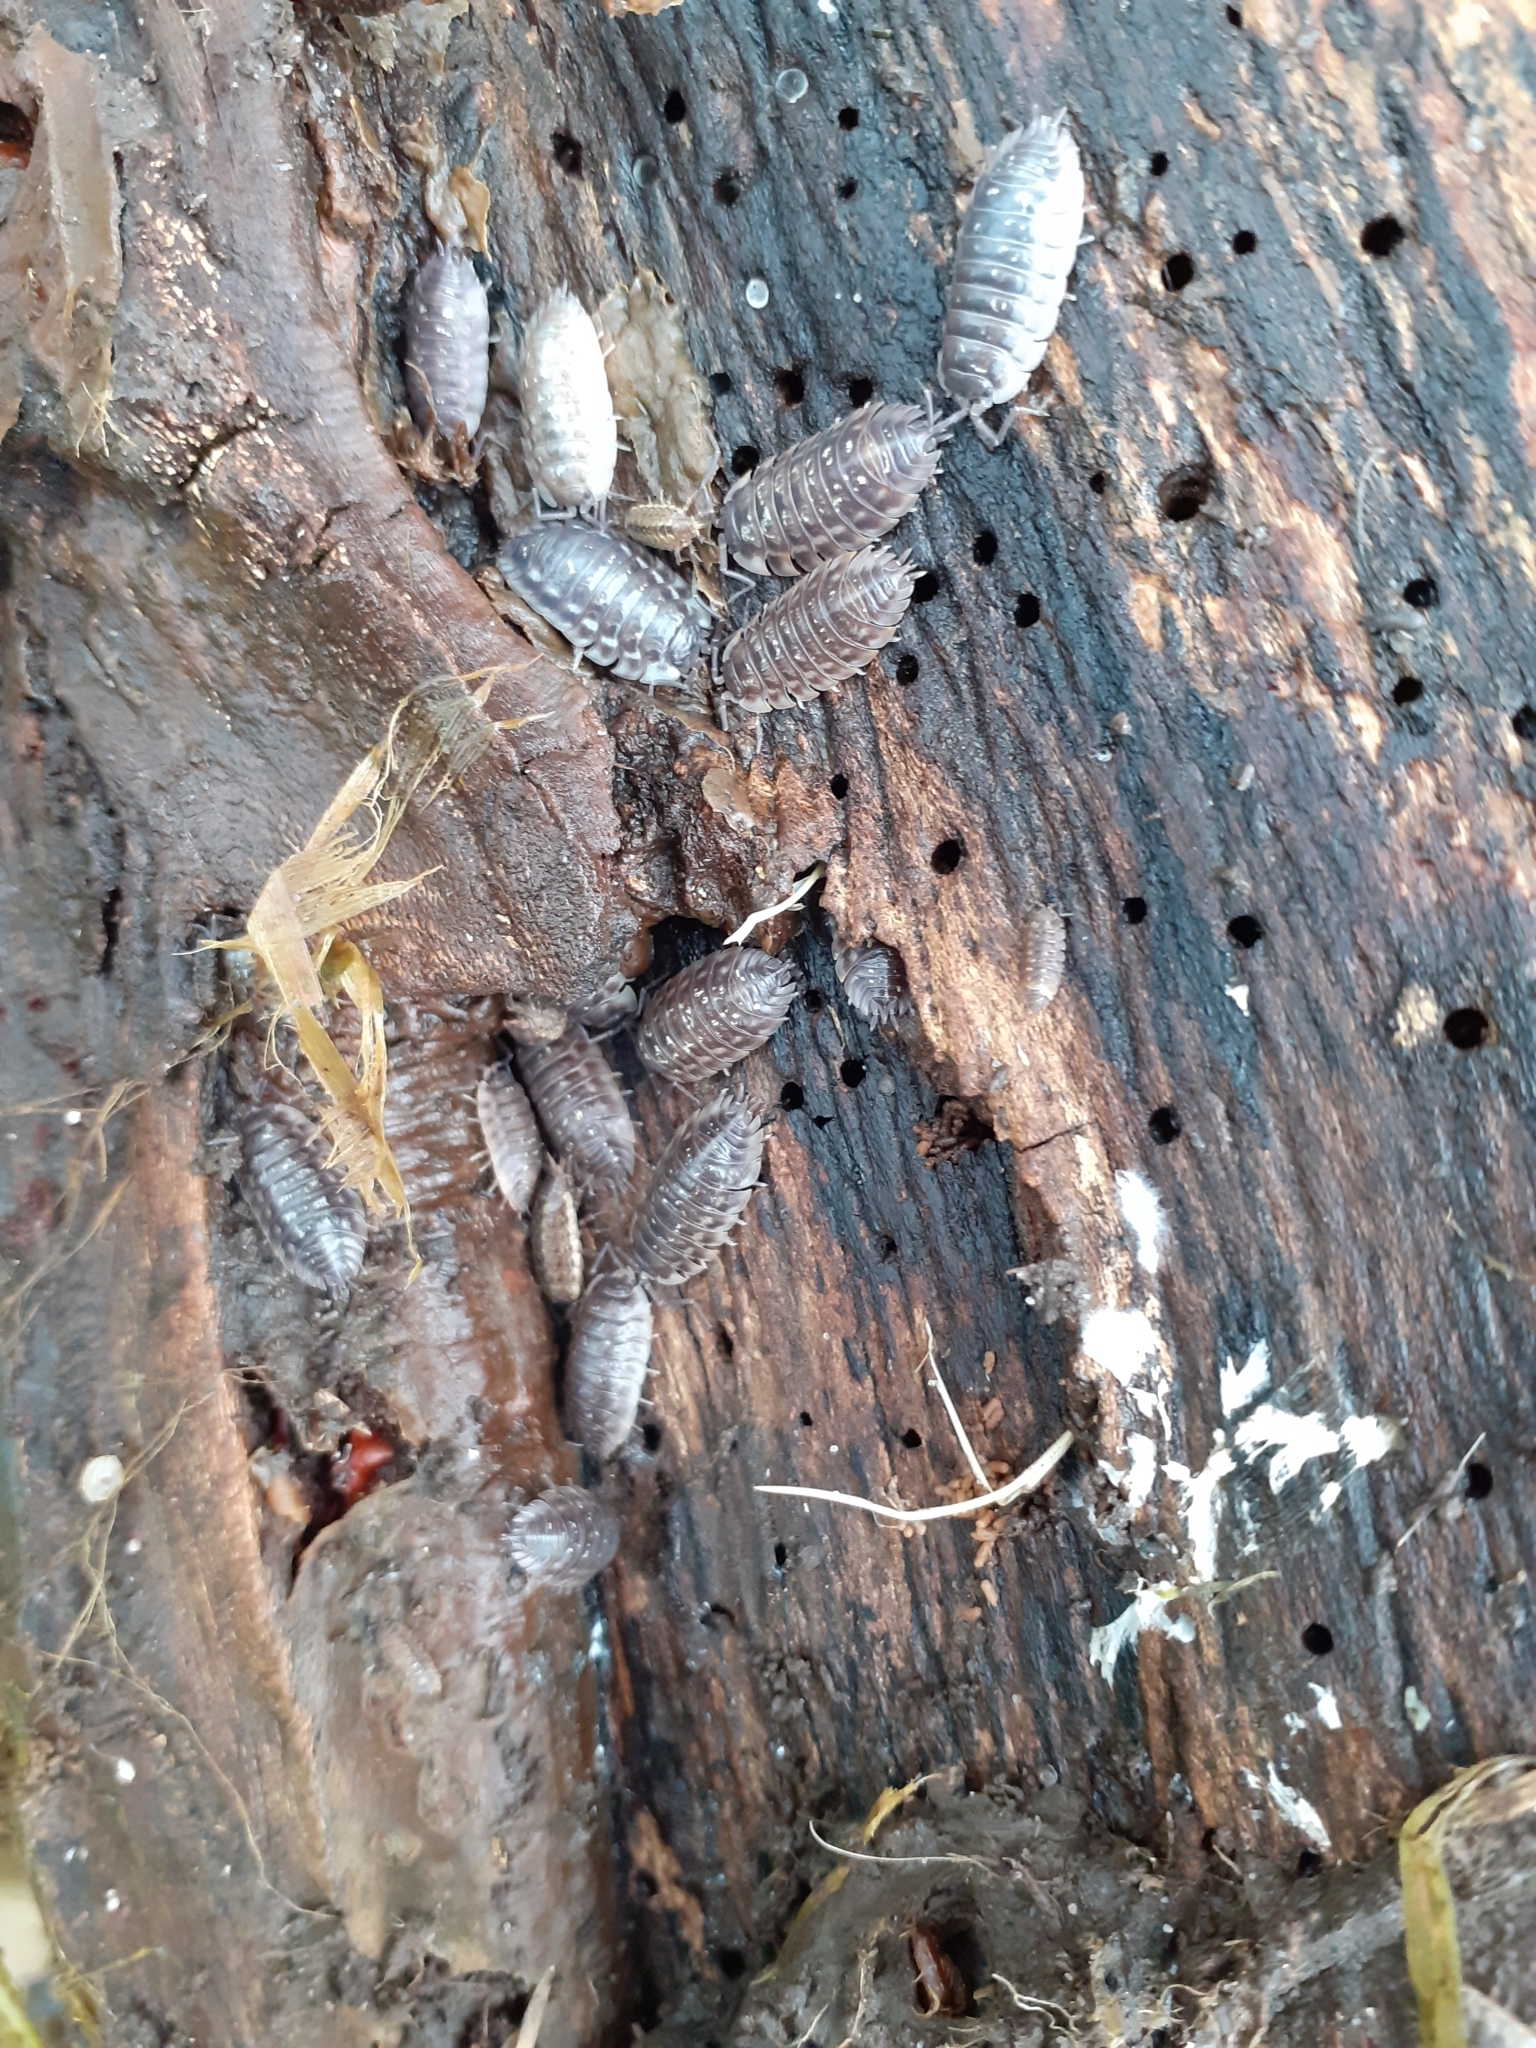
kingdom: Animalia
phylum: Arthropoda
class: Malacostraca
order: Isopoda
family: Oniscidae
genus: Oniscus
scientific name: Oniscus asellus
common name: Common shiny woodlouse
